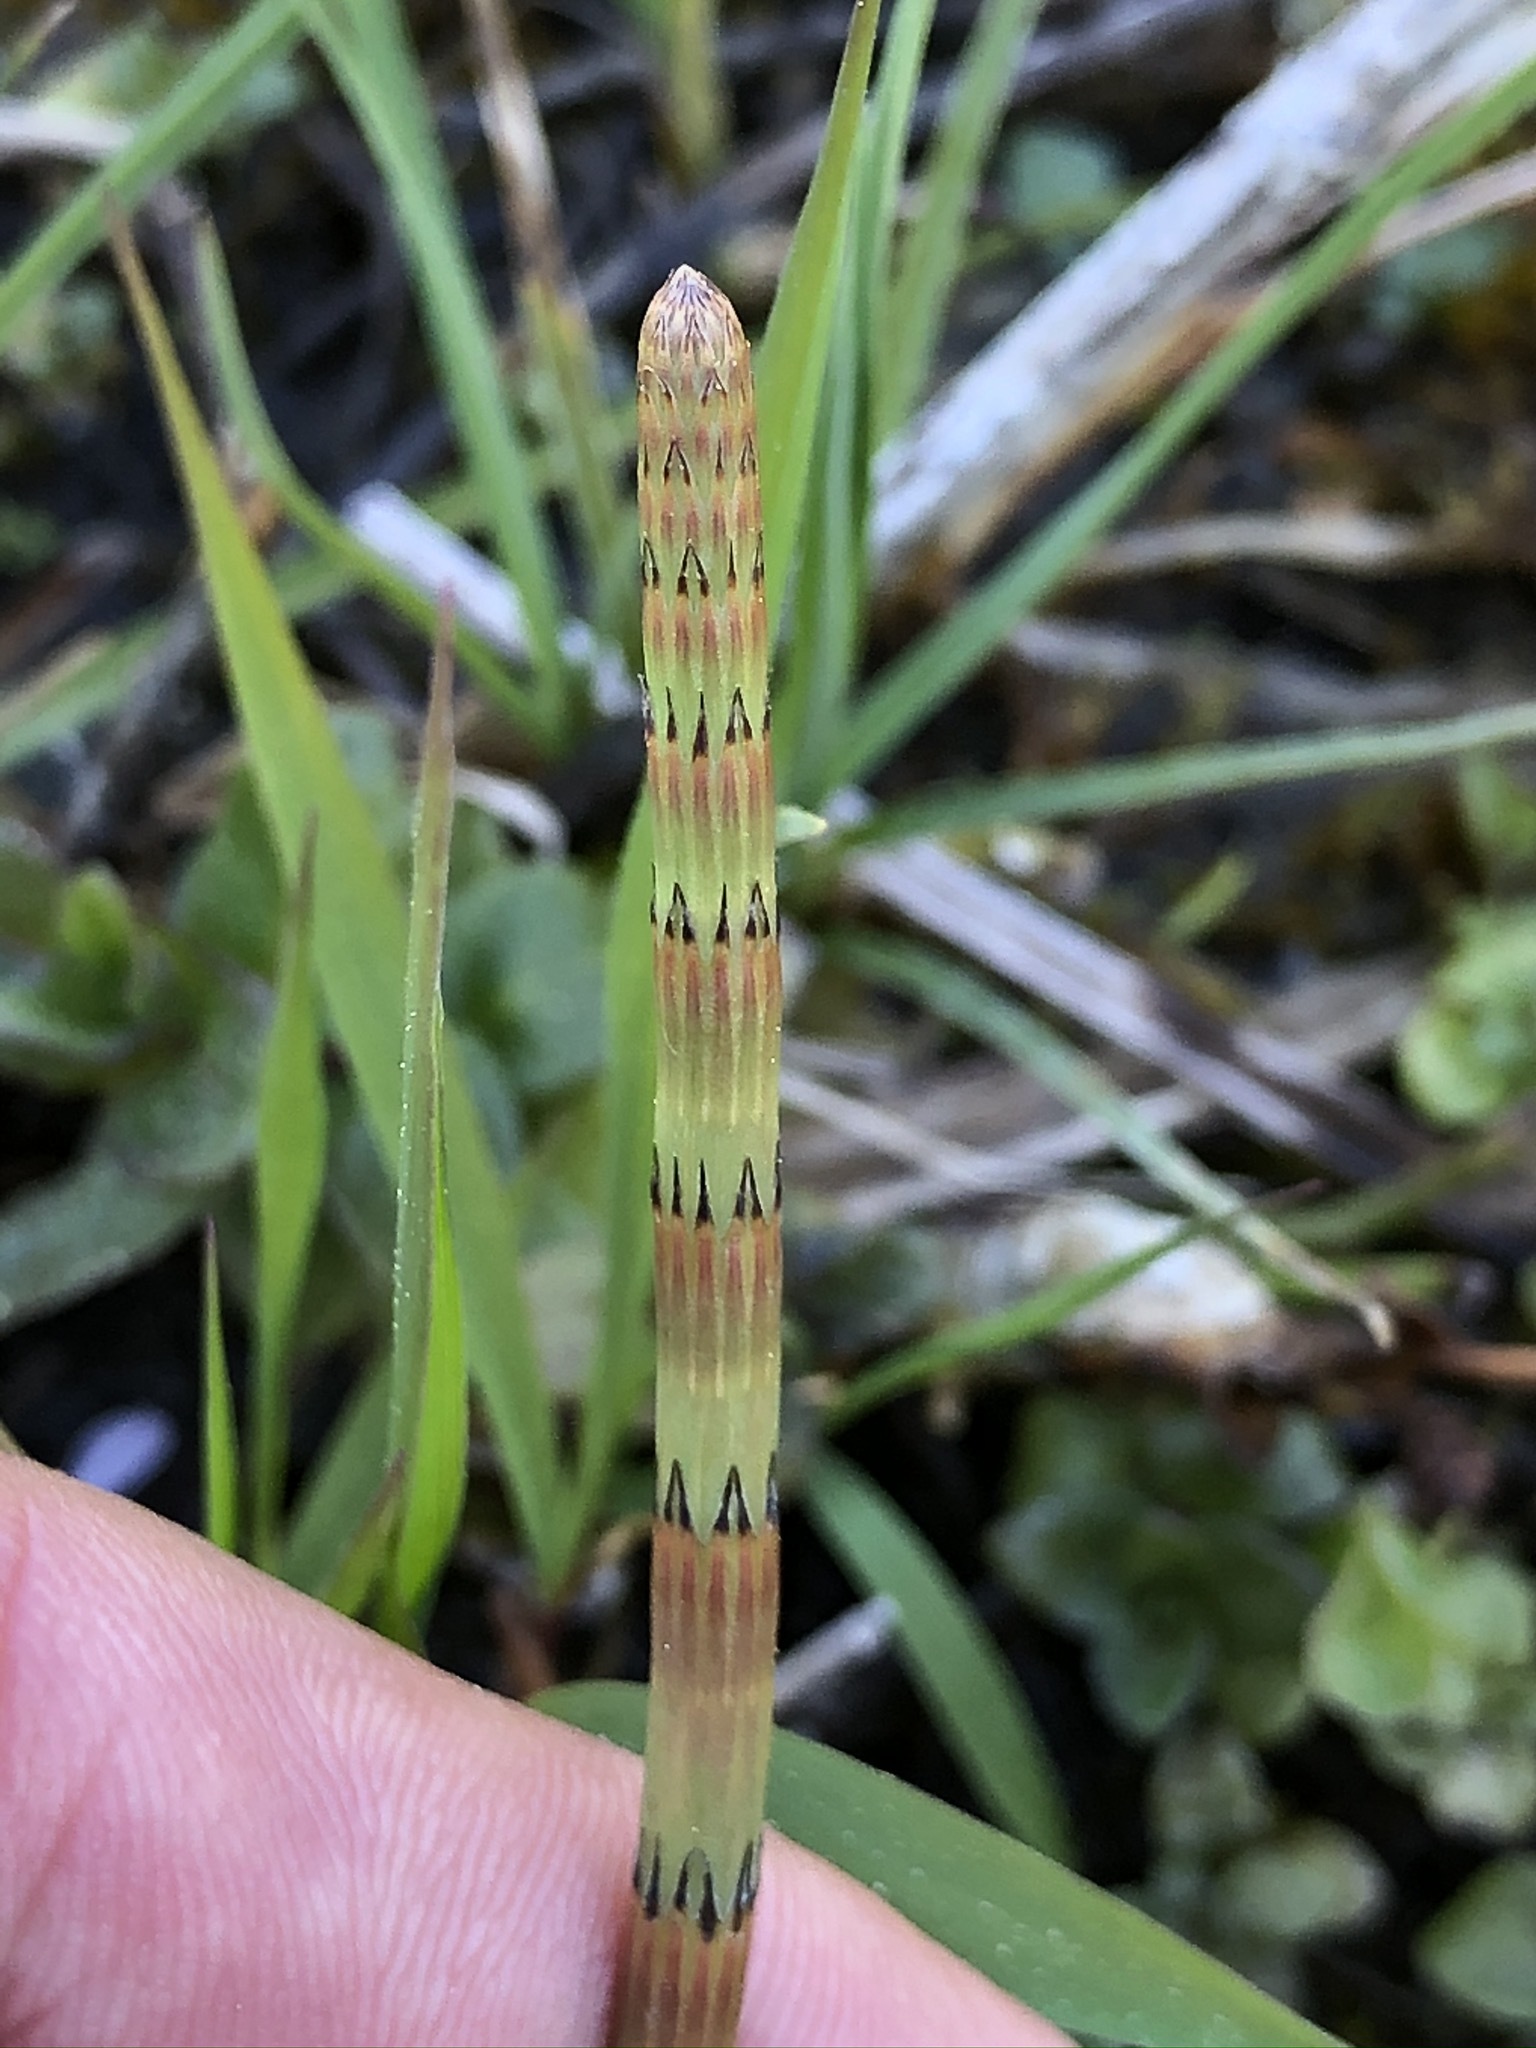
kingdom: Plantae
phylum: Tracheophyta
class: Polypodiopsida
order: Equisetales
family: Equisetaceae
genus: Equisetum
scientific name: Equisetum fluviatile
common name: Water horsetail
